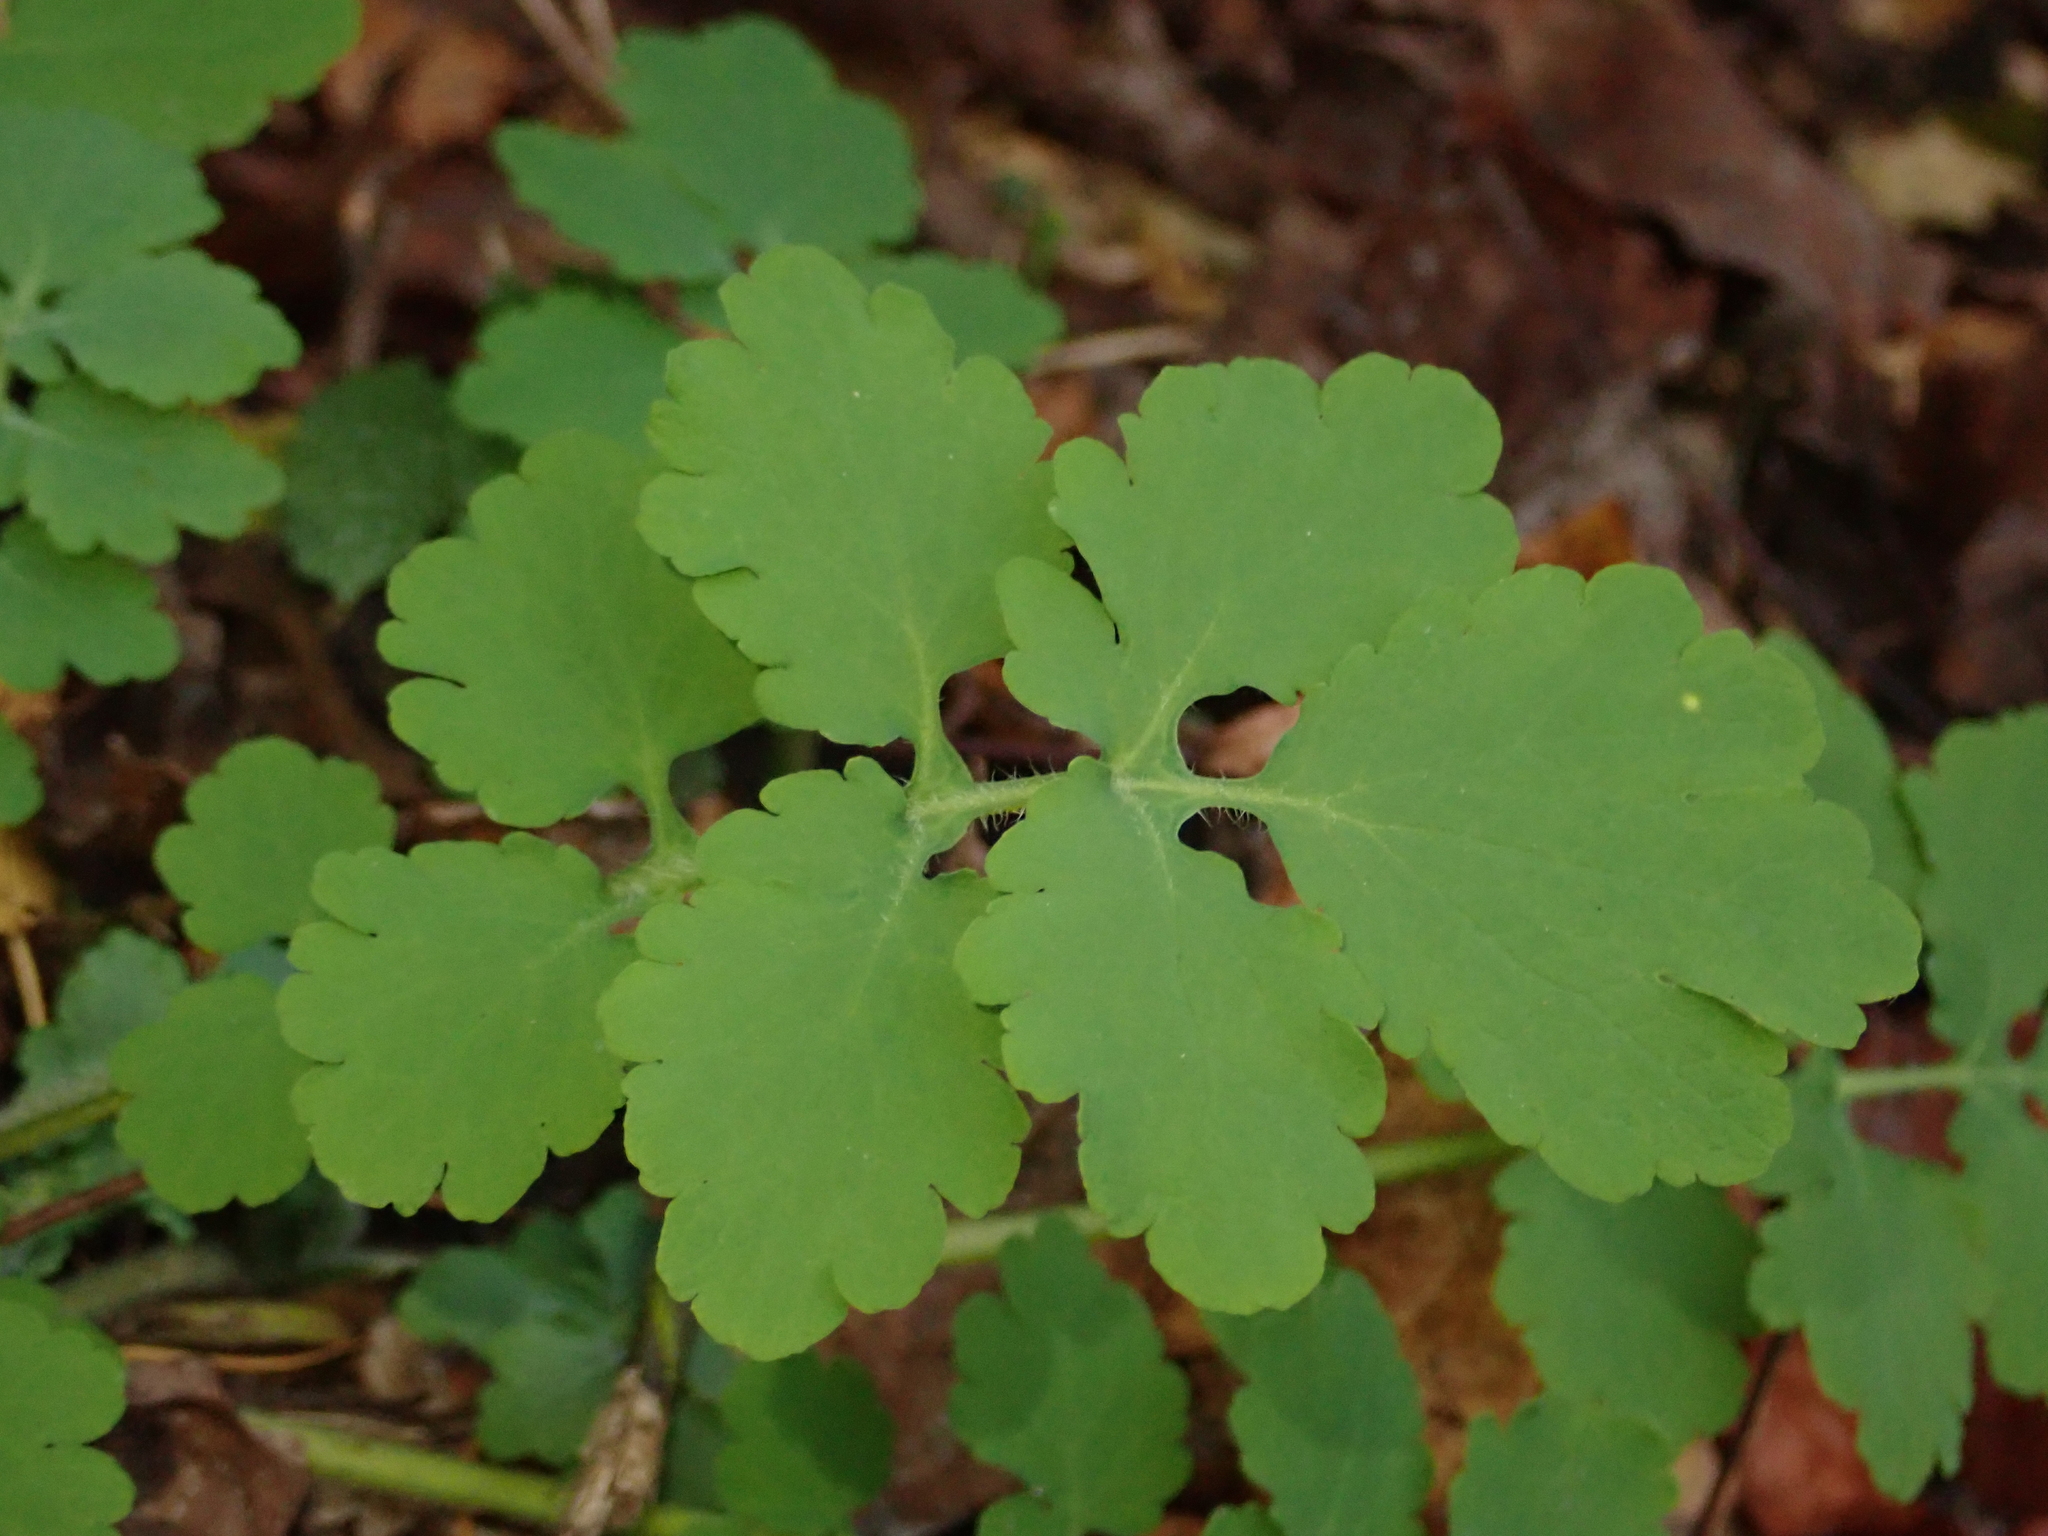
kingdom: Plantae
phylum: Tracheophyta
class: Magnoliopsida
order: Ranunculales
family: Papaveraceae
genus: Chelidonium
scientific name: Chelidonium majus
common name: Greater celandine
